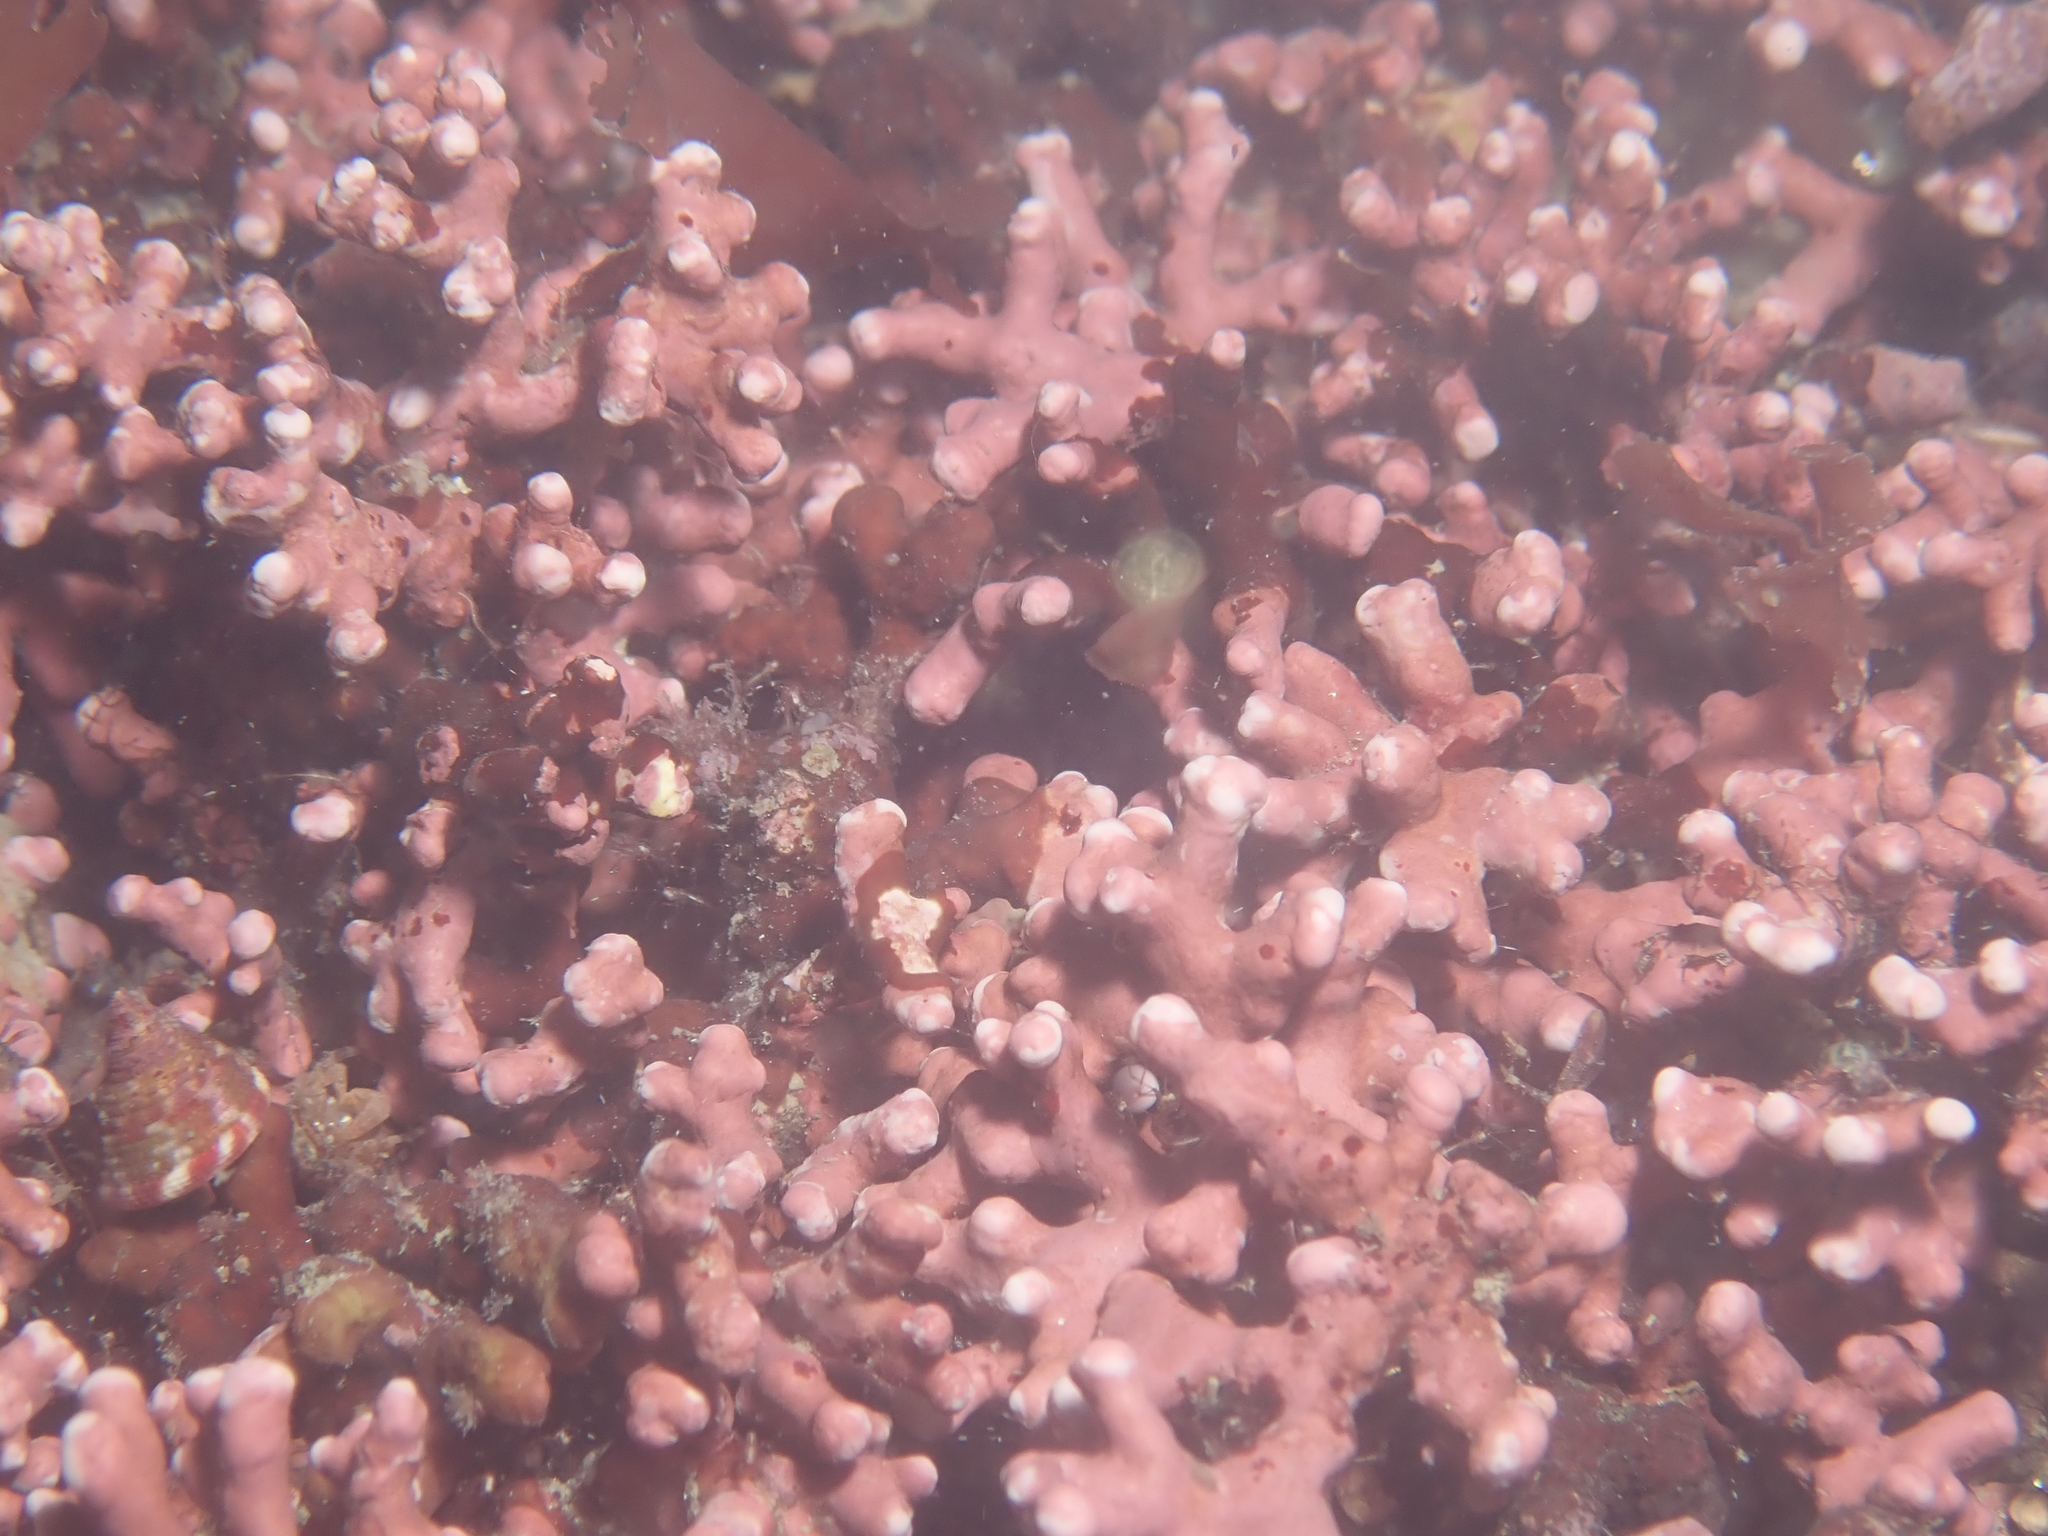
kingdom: Plantae
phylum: Rhodophyta
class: Florideophyceae
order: Corallinales
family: Hapalidiaceae
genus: Phymatolithon
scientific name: Phymatolithon calcareum
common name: Common maërl
